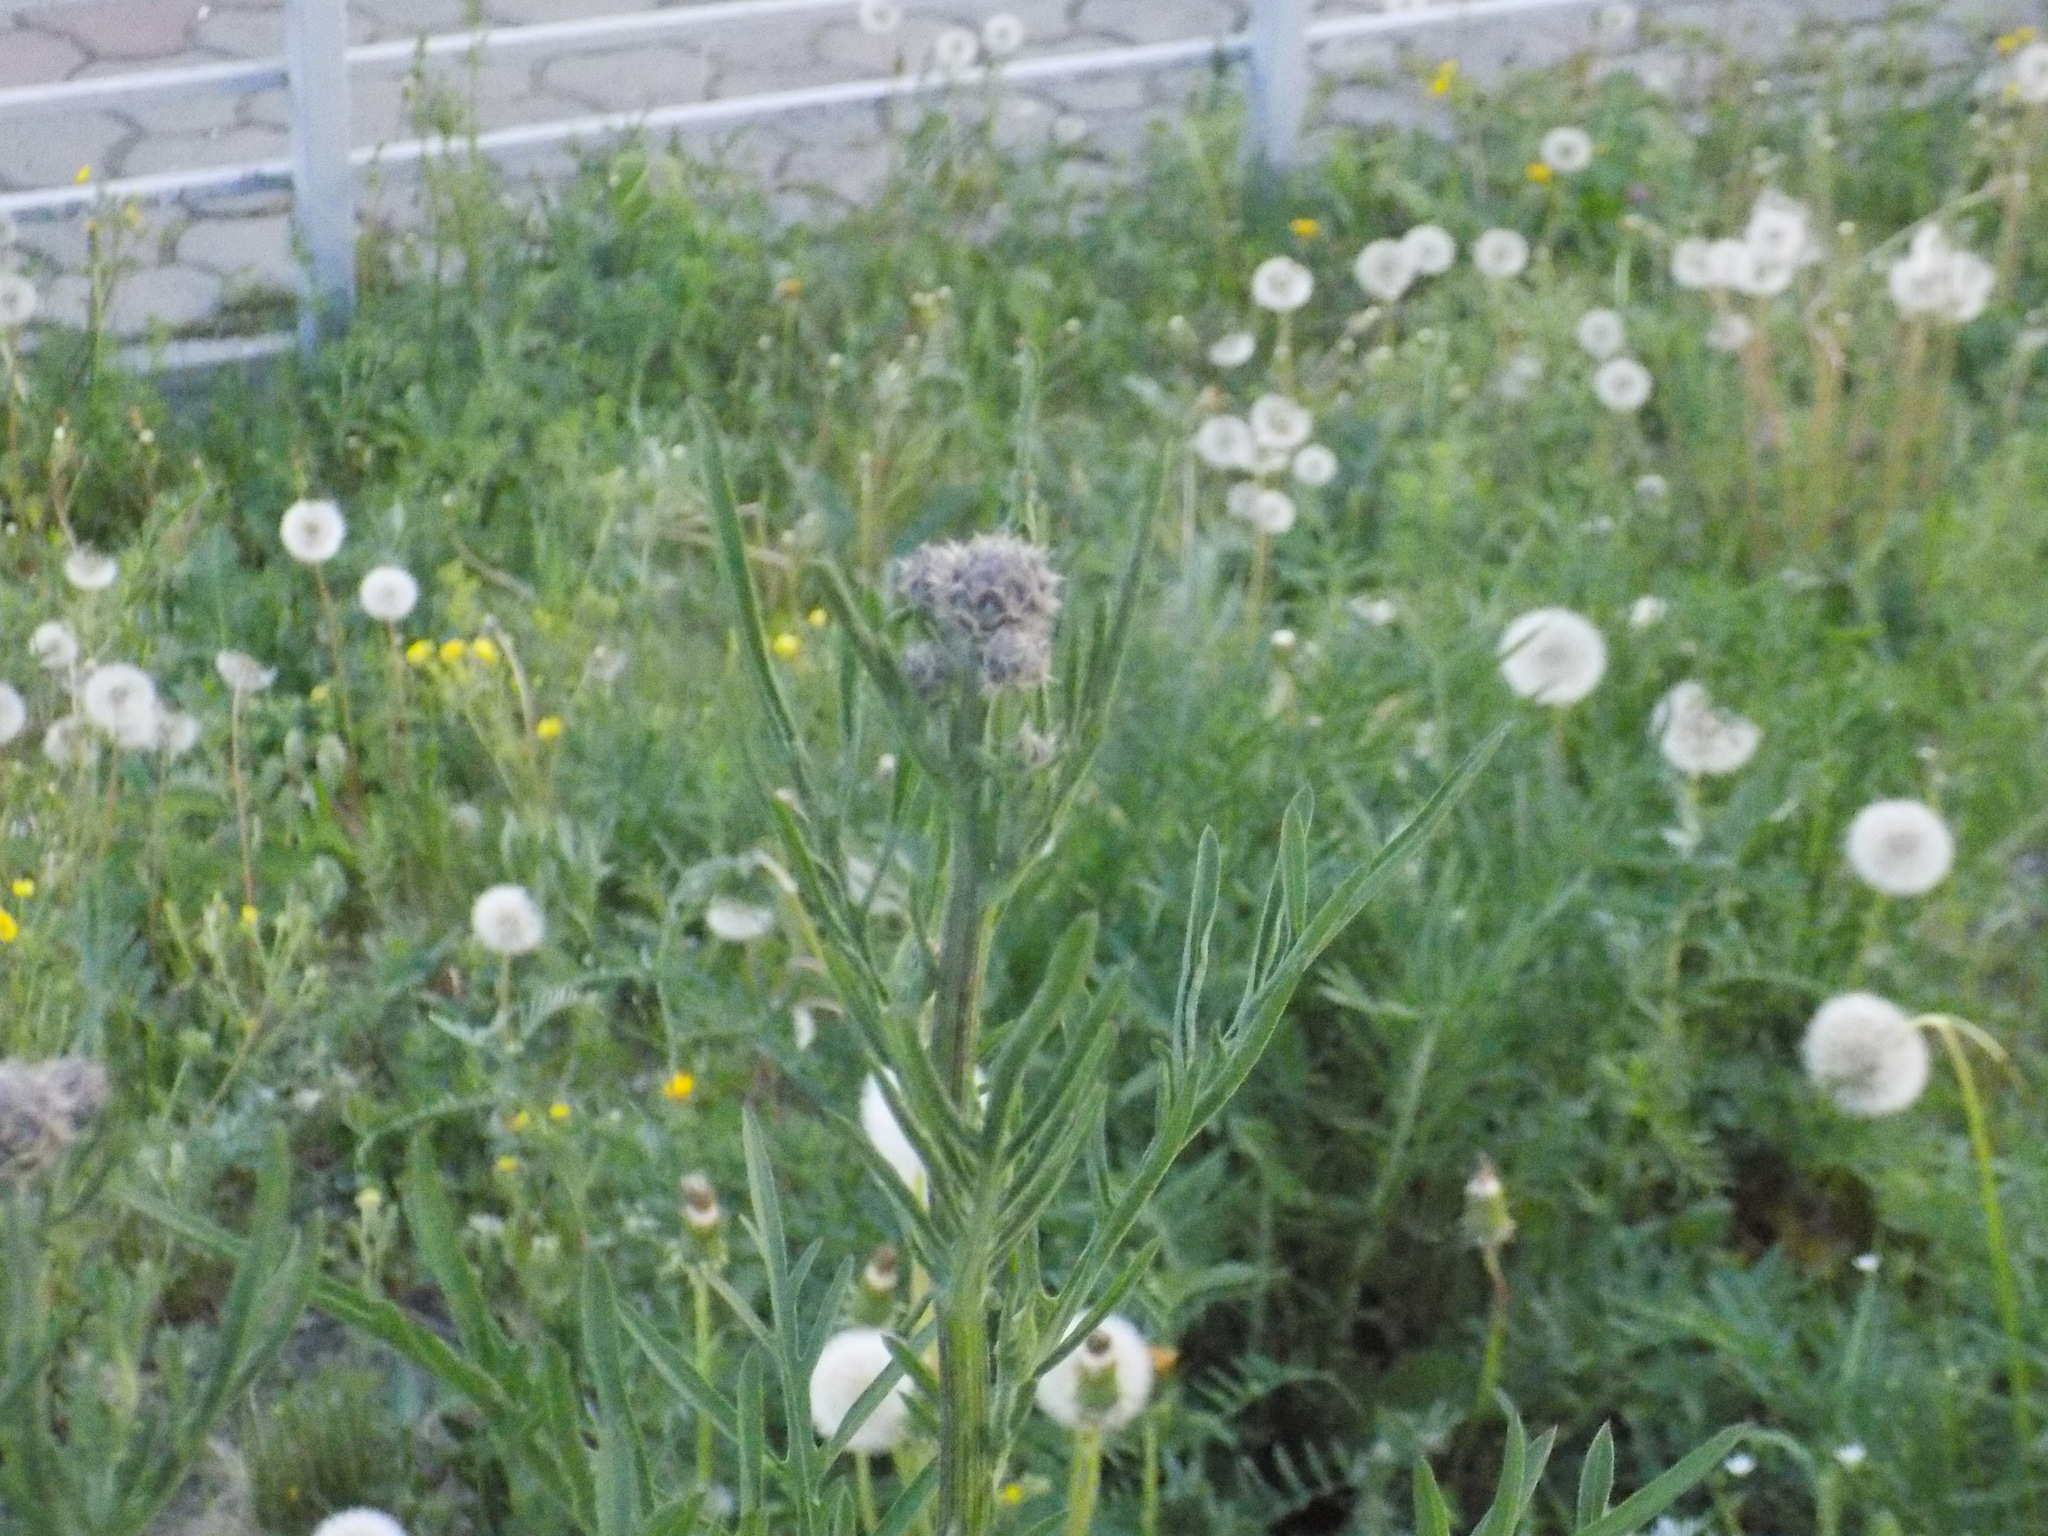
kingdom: Plantae
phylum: Tracheophyta
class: Magnoliopsida
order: Asterales
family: Asteraceae
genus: Centaurea
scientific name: Centaurea scabiosa
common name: Greater knapweed
